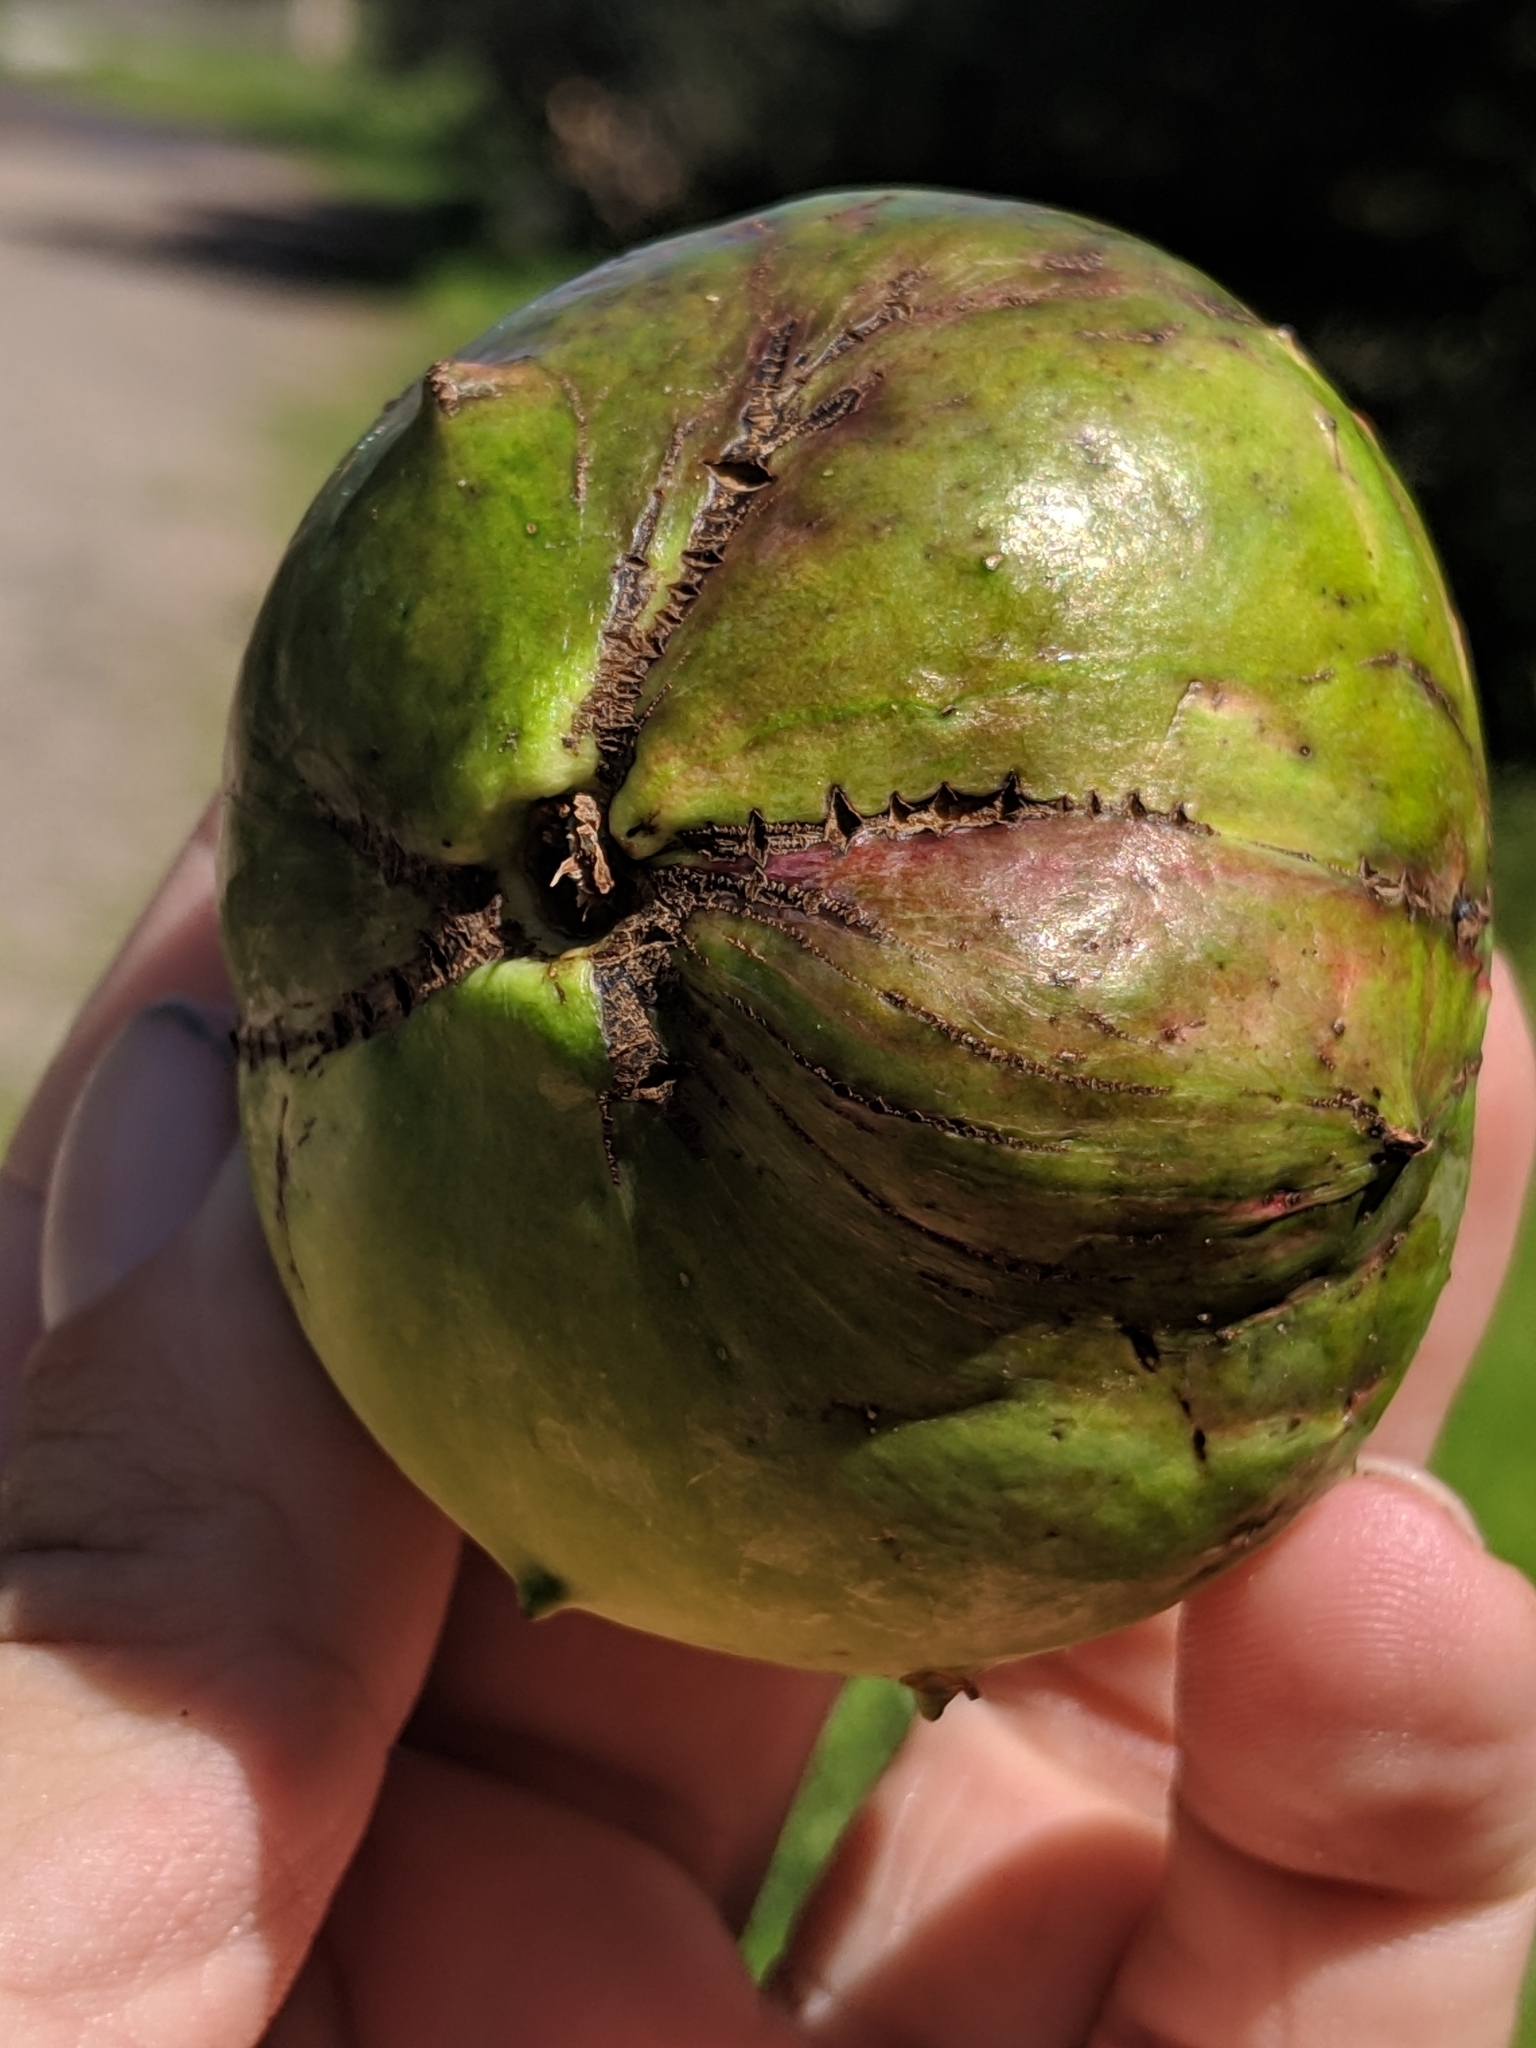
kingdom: Animalia
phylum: Arthropoda
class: Insecta
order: Hymenoptera
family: Cynipidae
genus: Amphibolips
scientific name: Amphibolips quercuspomiformis
